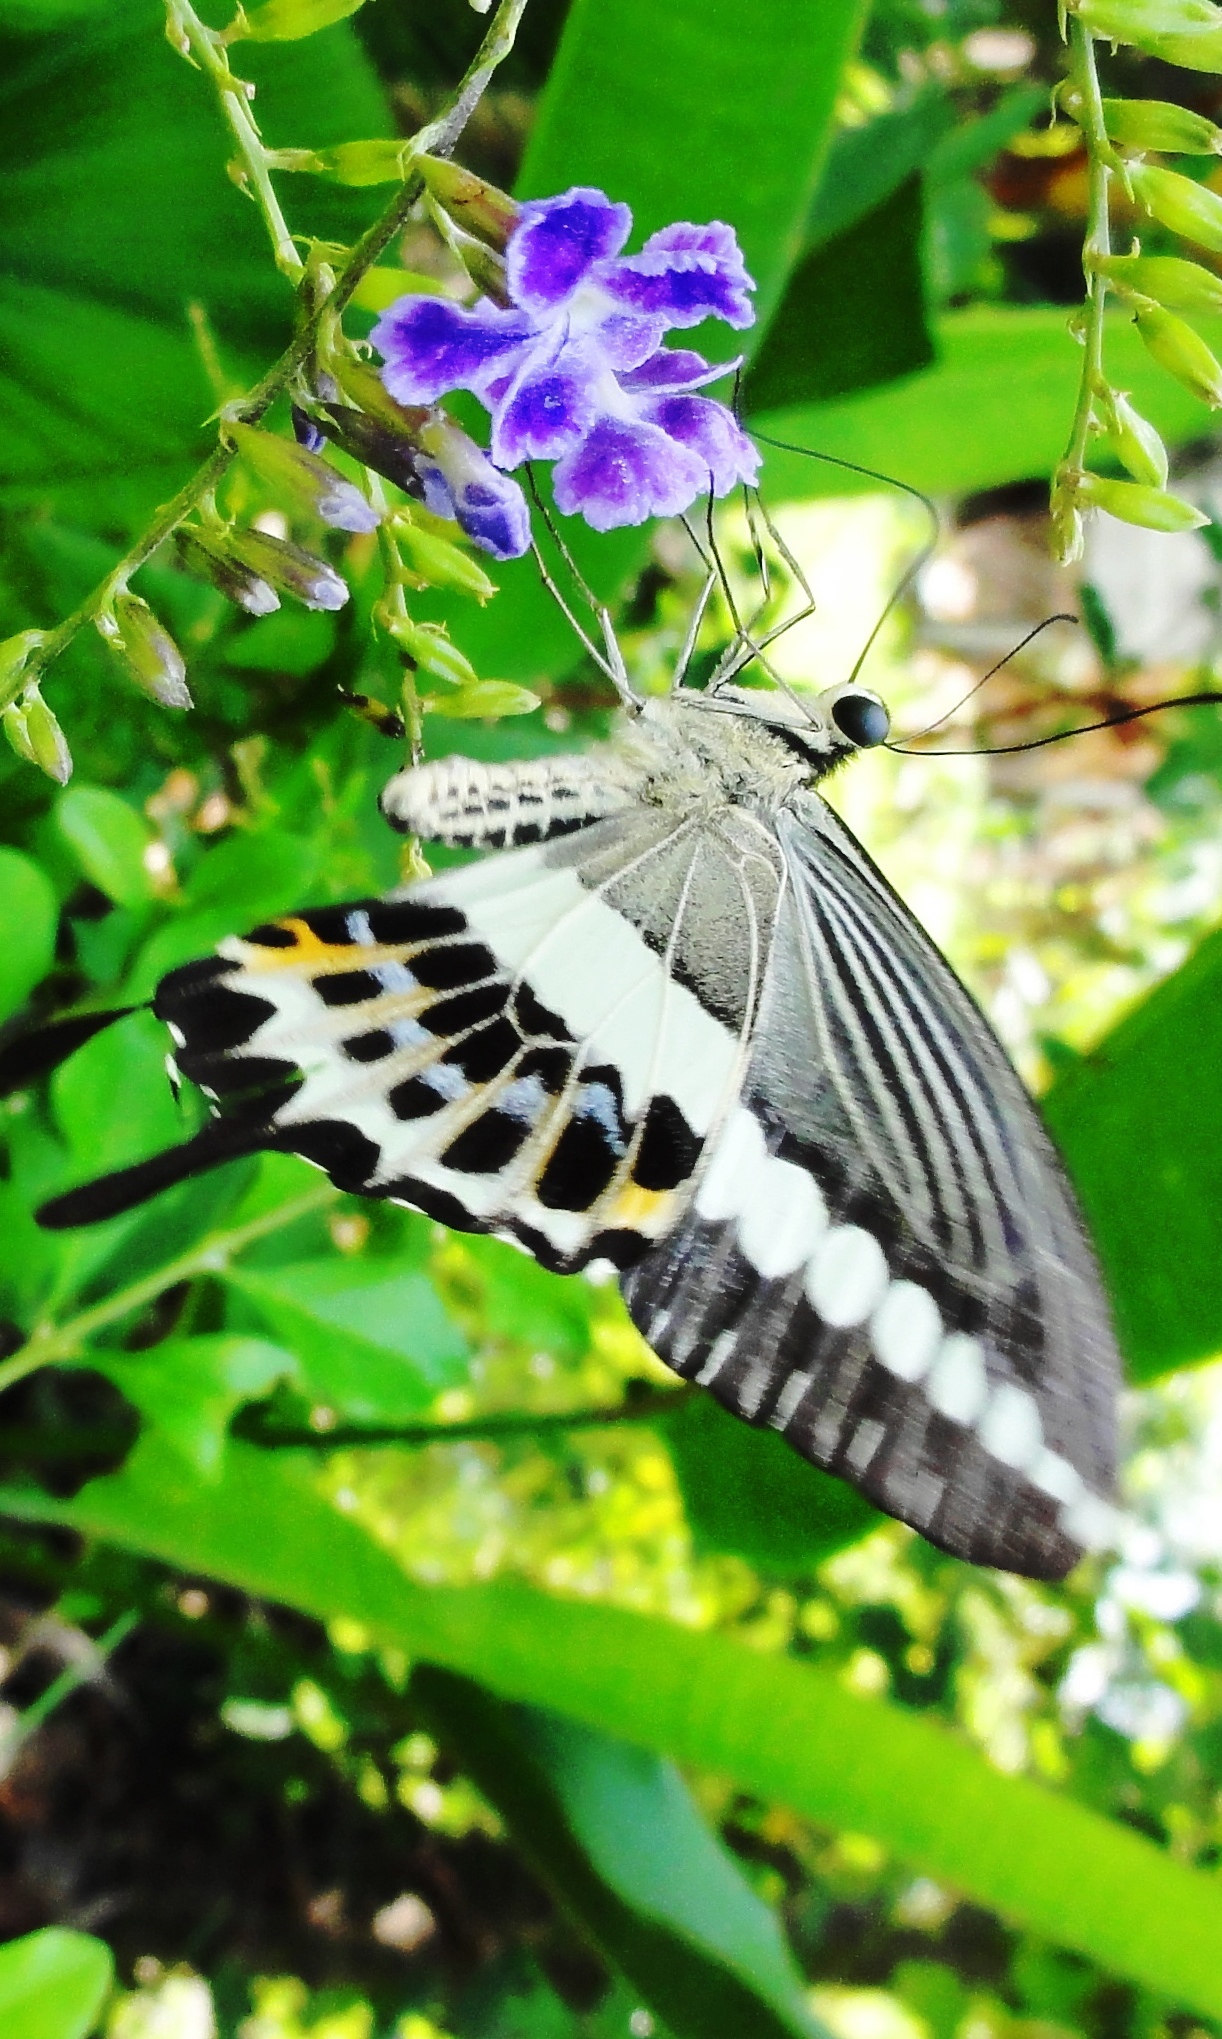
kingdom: Animalia
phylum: Arthropoda
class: Insecta
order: Lepidoptera
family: Papilionidae
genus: Papilio
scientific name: Papilio demolion
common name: Banded swallowtail
